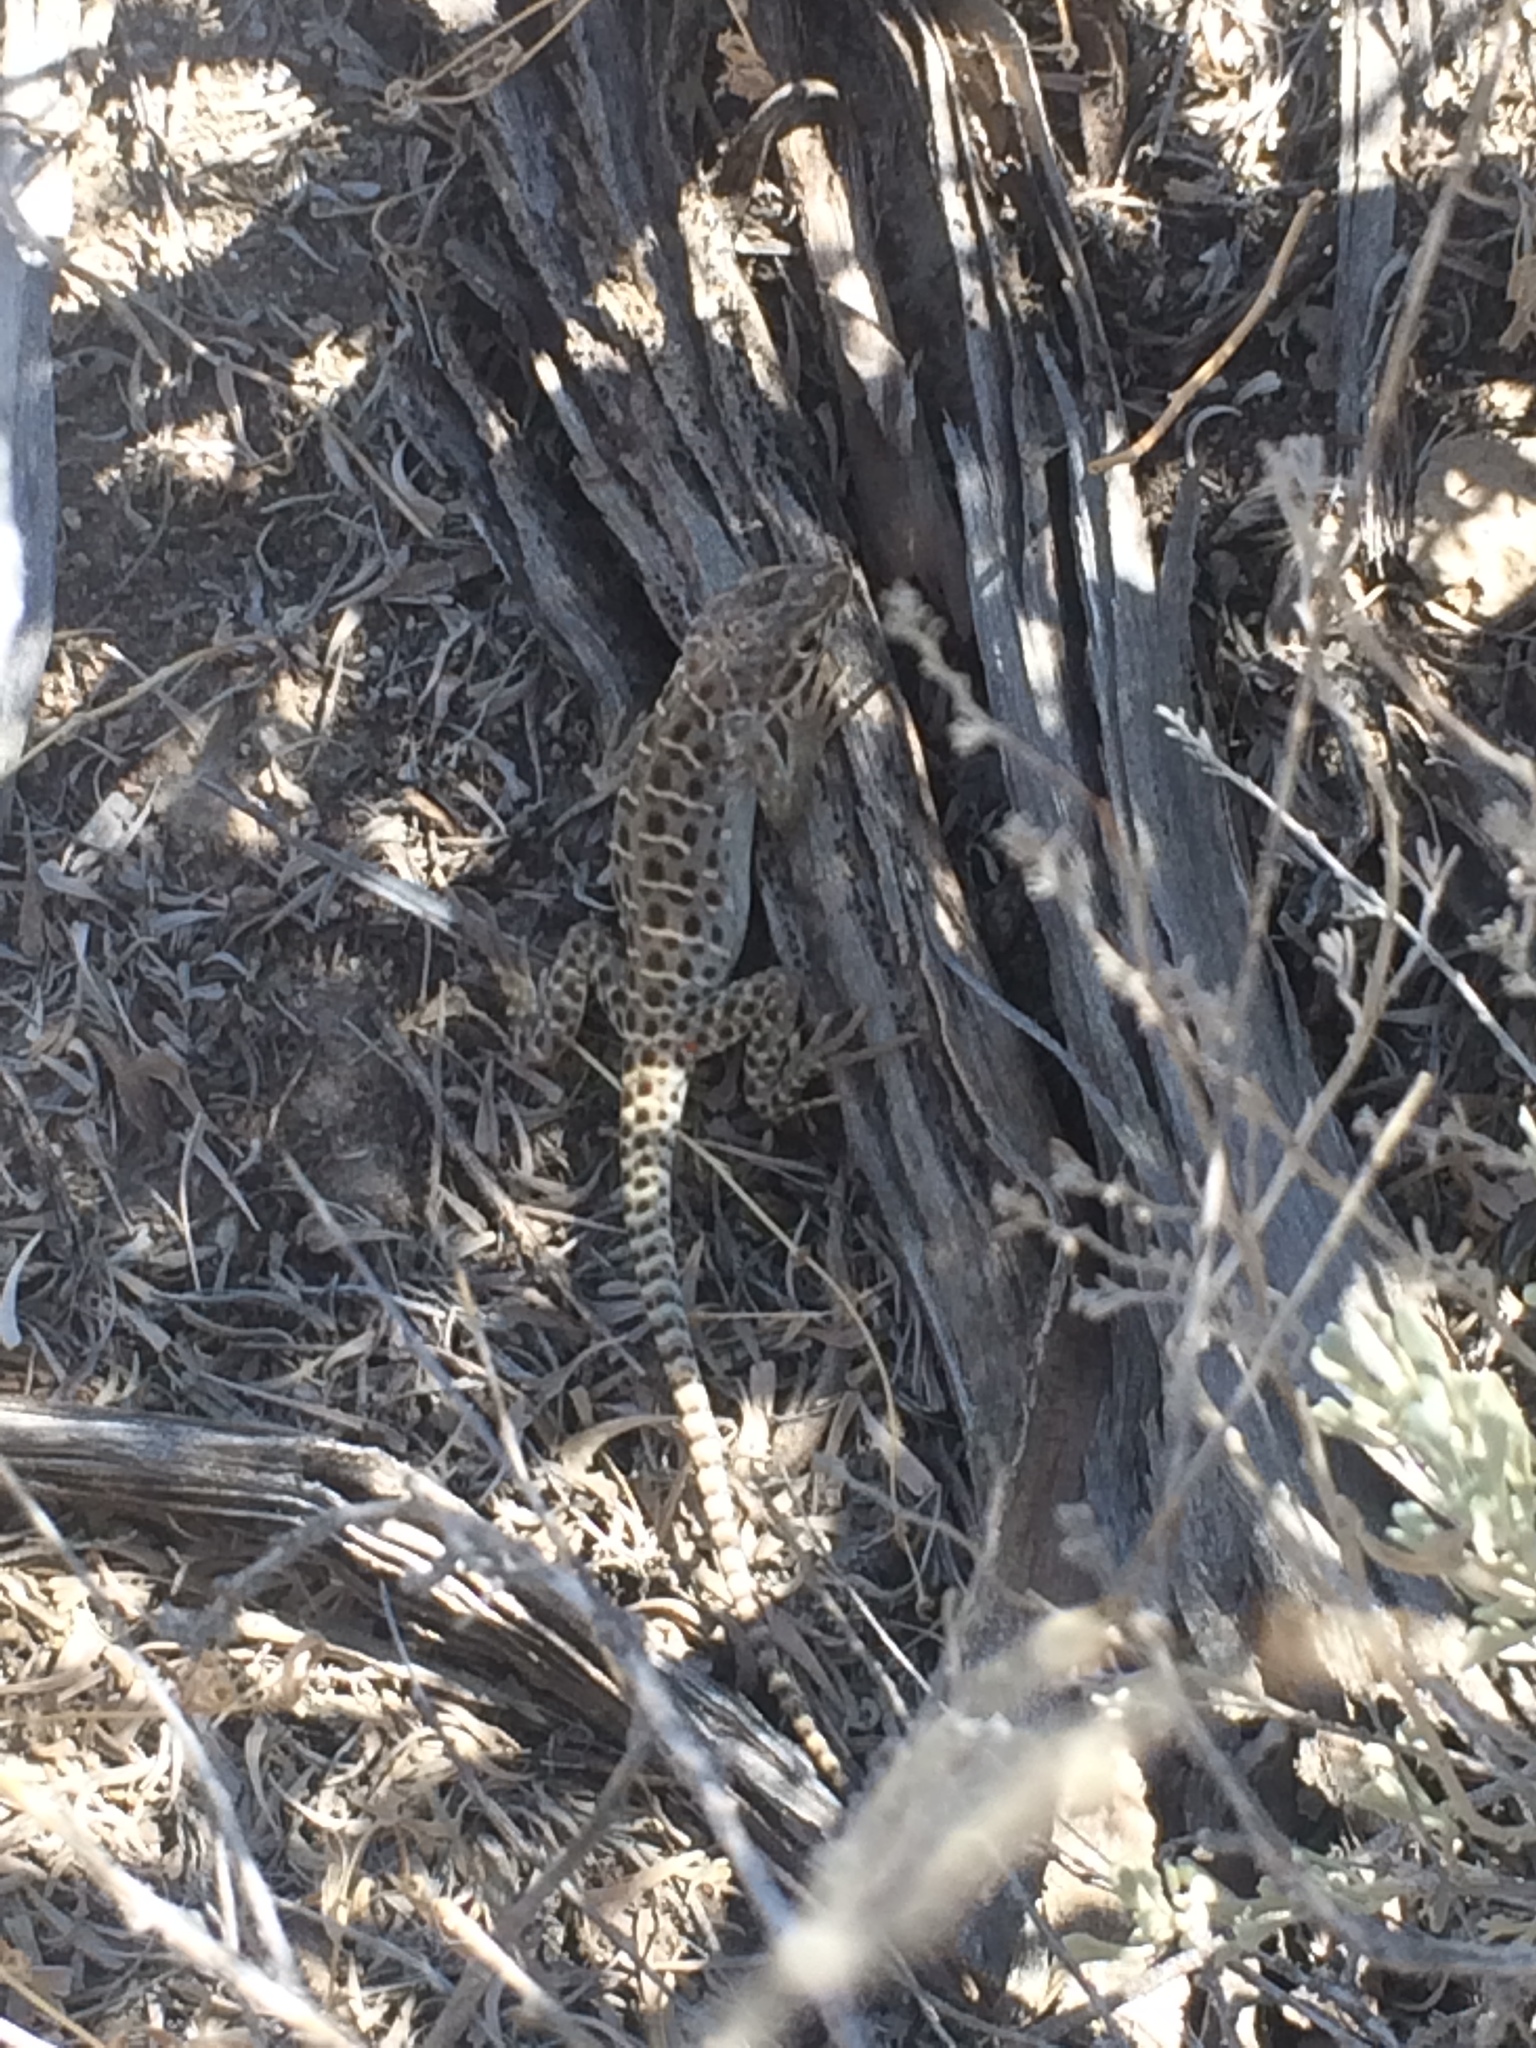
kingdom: Animalia
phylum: Chordata
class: Squamata
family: Crotaphytidae
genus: Gambelia
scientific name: Gambelia wislizenii
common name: Longnose leopard lizard
